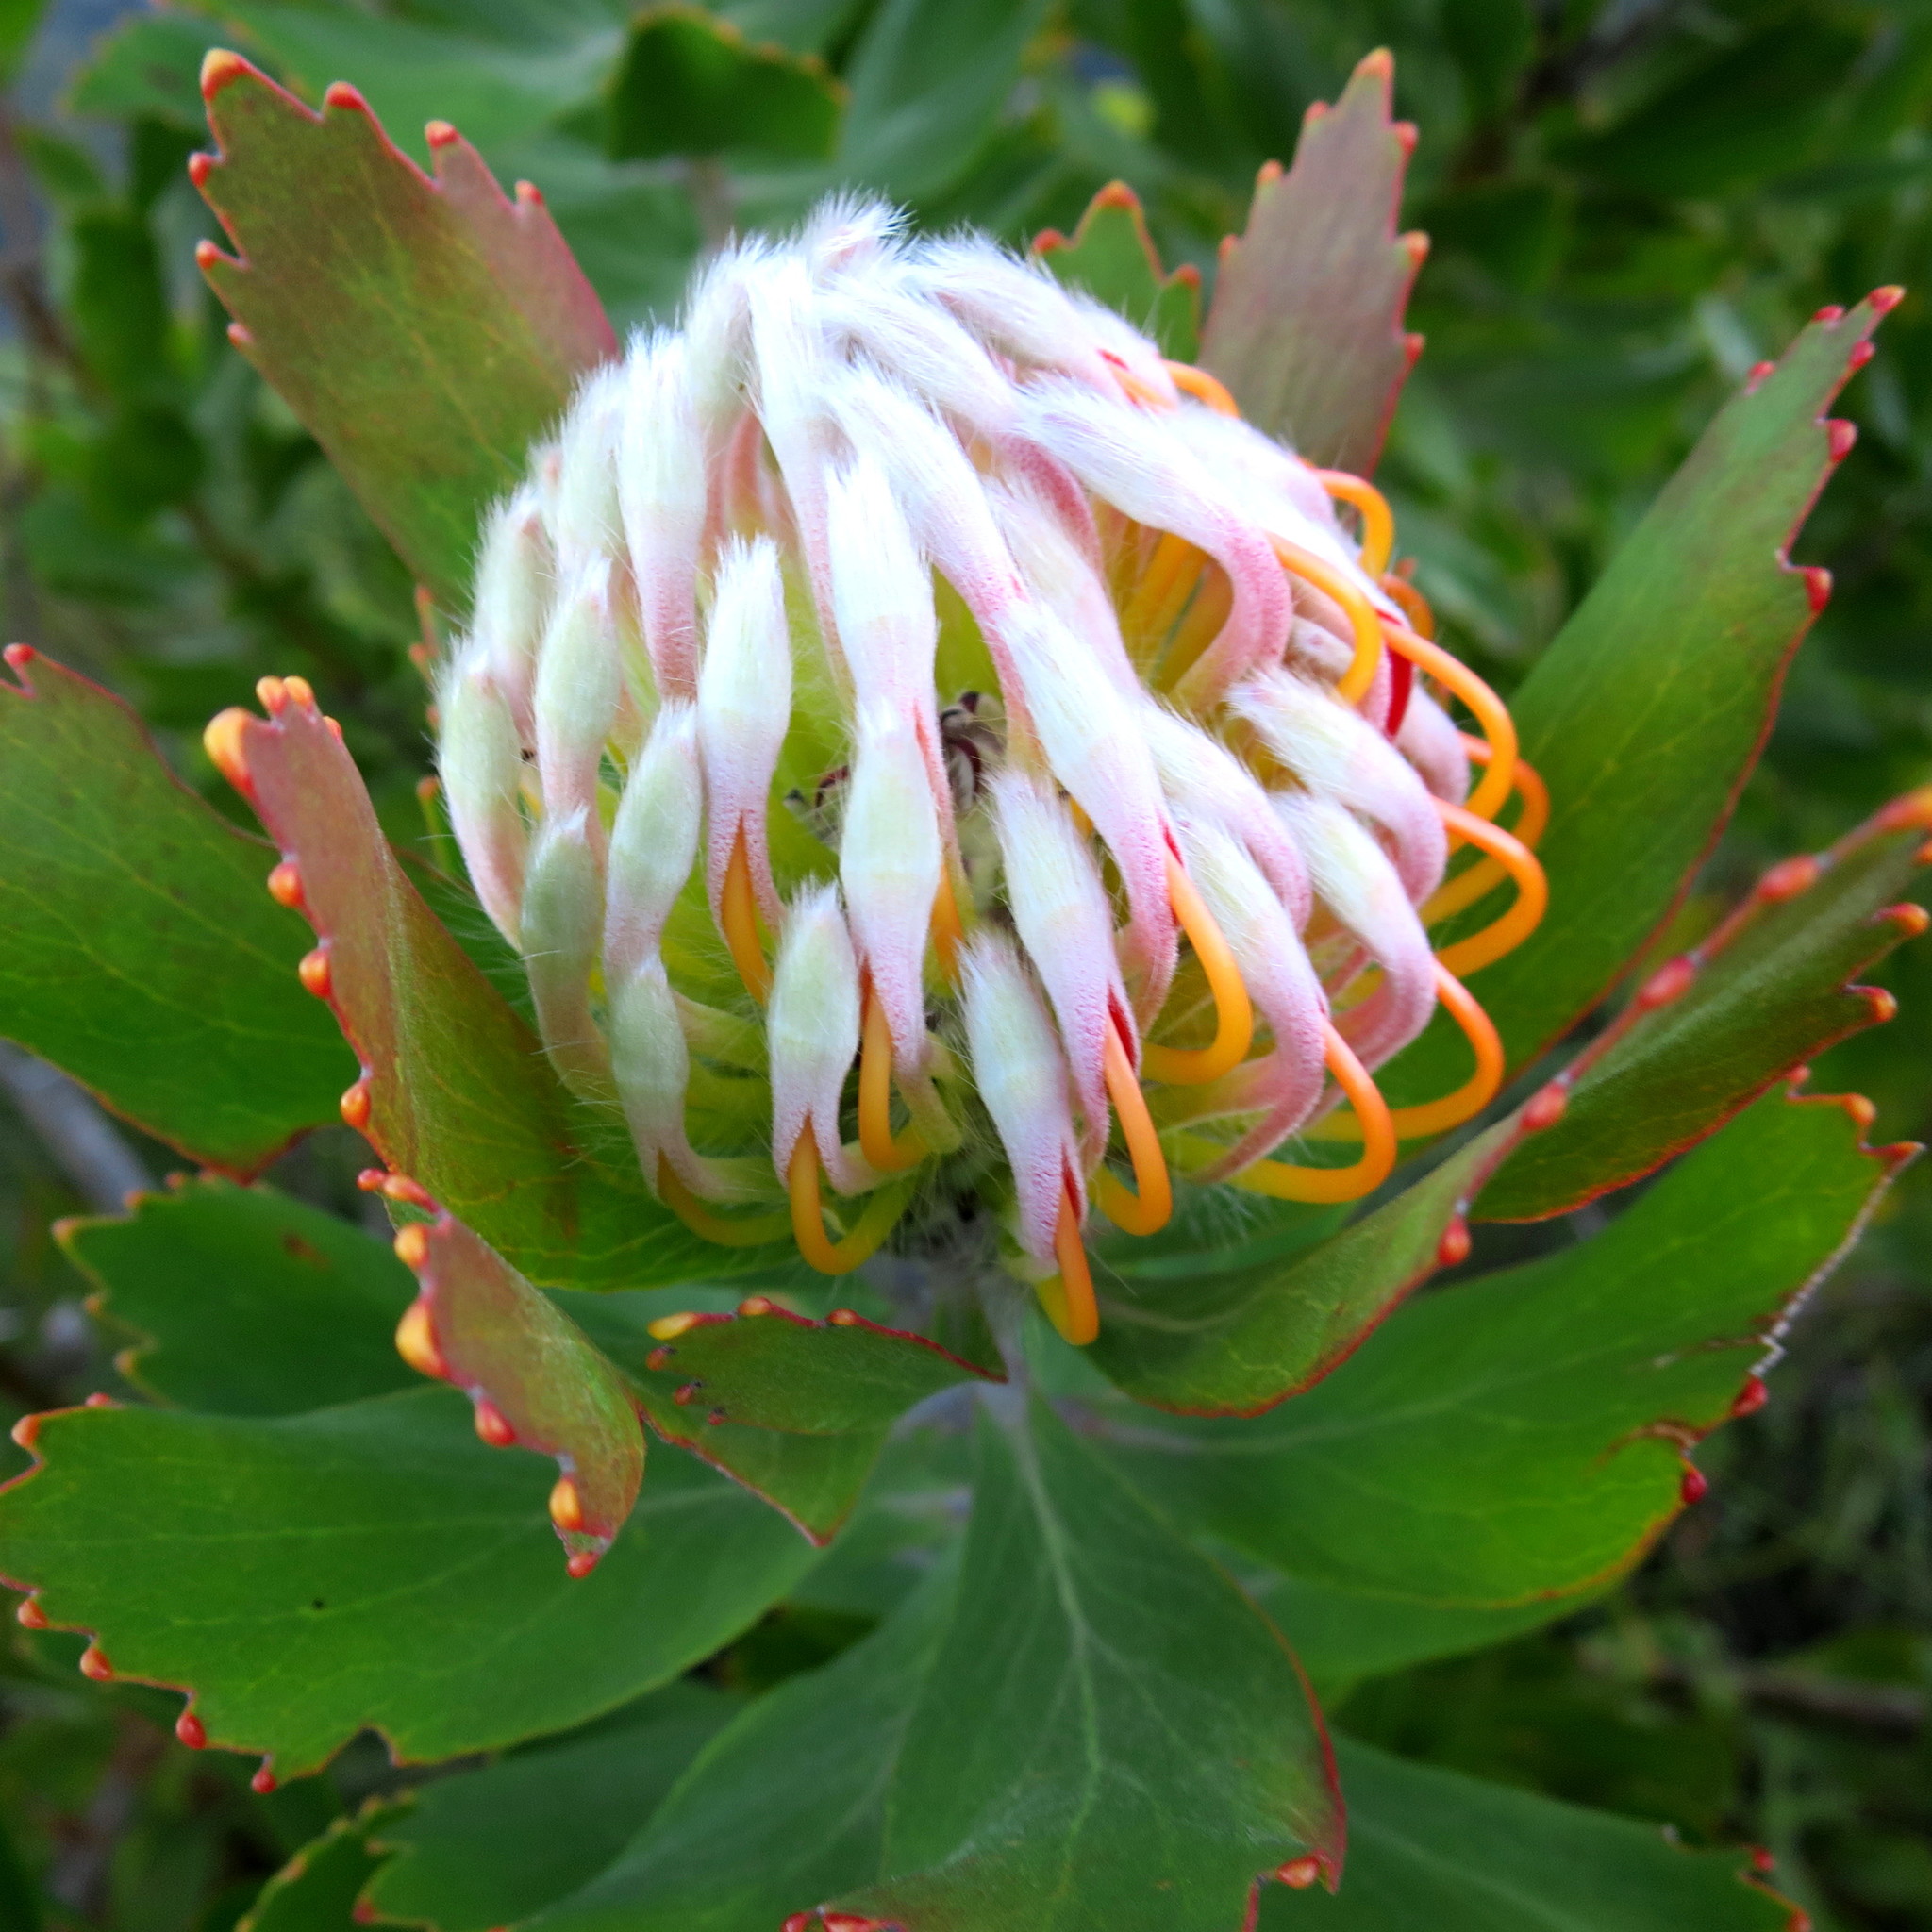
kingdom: Plantae
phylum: Tracheophyta
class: Magnoliopsida
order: Proteales
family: Proteaceae
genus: Leucospermum
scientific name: Leucospermum glabrum
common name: Outeniqua pincushion
